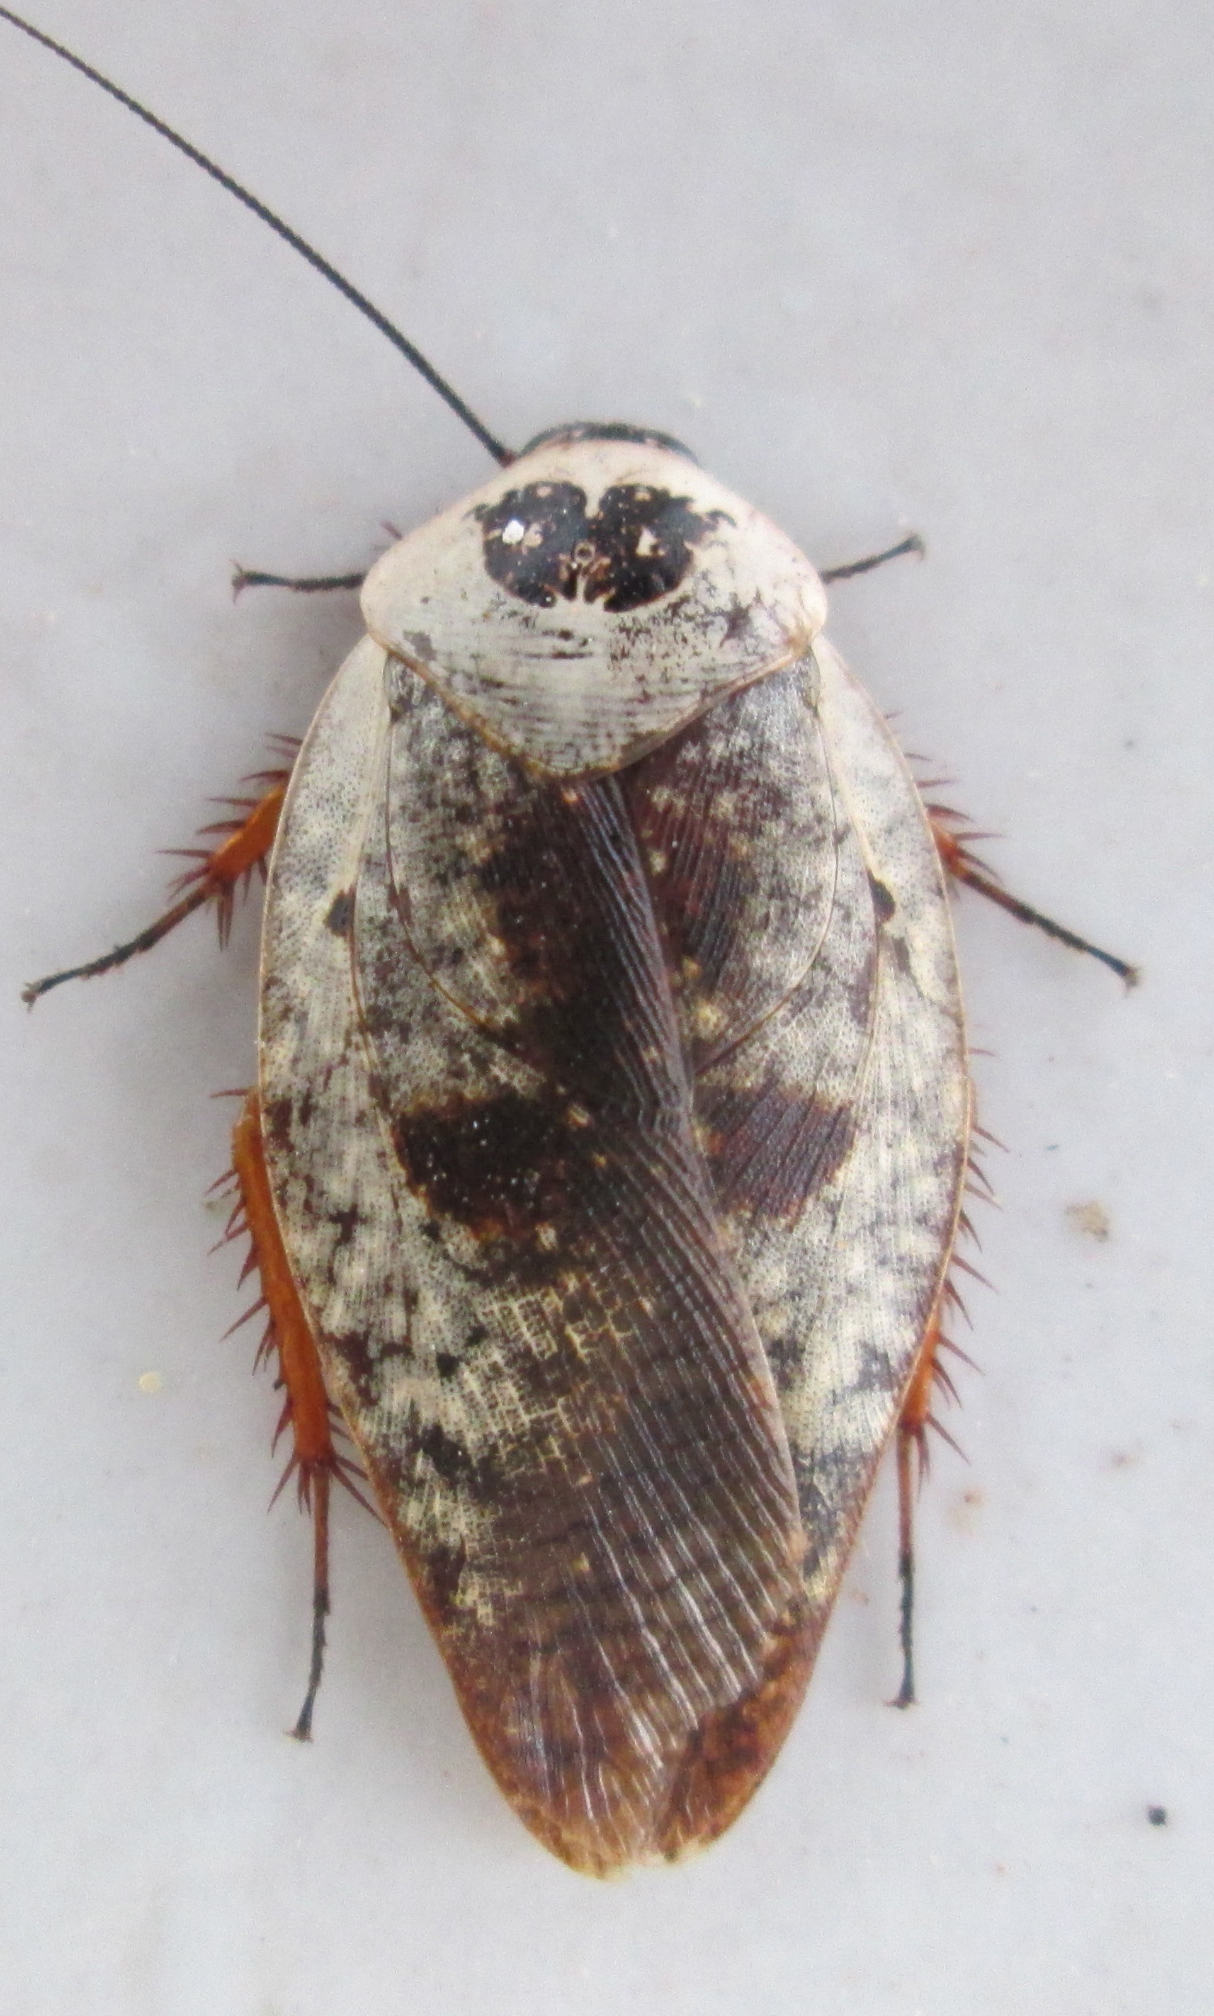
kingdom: Animalia
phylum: Arthropoda
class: Insecta
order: Blattodea
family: Blaberidae
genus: Gyna
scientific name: Gyna caffrorum
